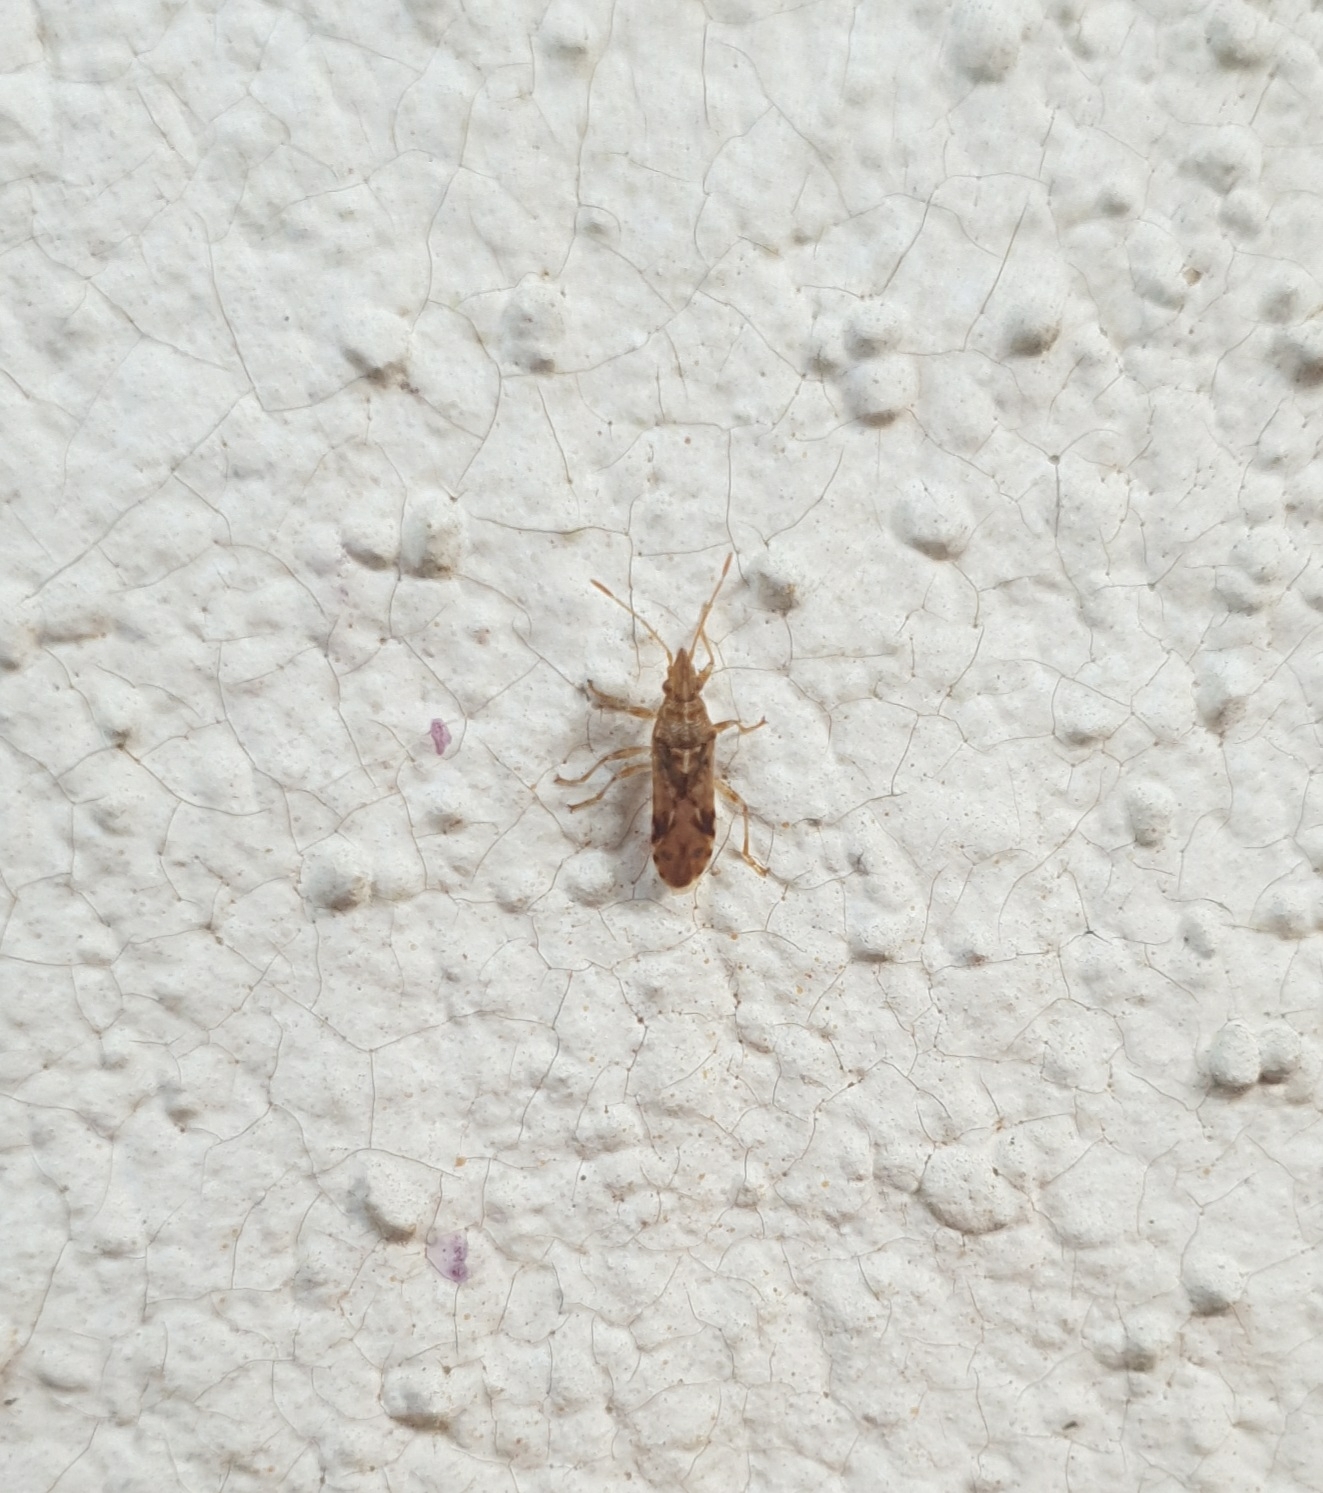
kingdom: Animalia
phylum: Arthropoda
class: Insecta
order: Hemiptera
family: Lygaeidae
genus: Belonochilus
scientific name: Belonochilus numenius
